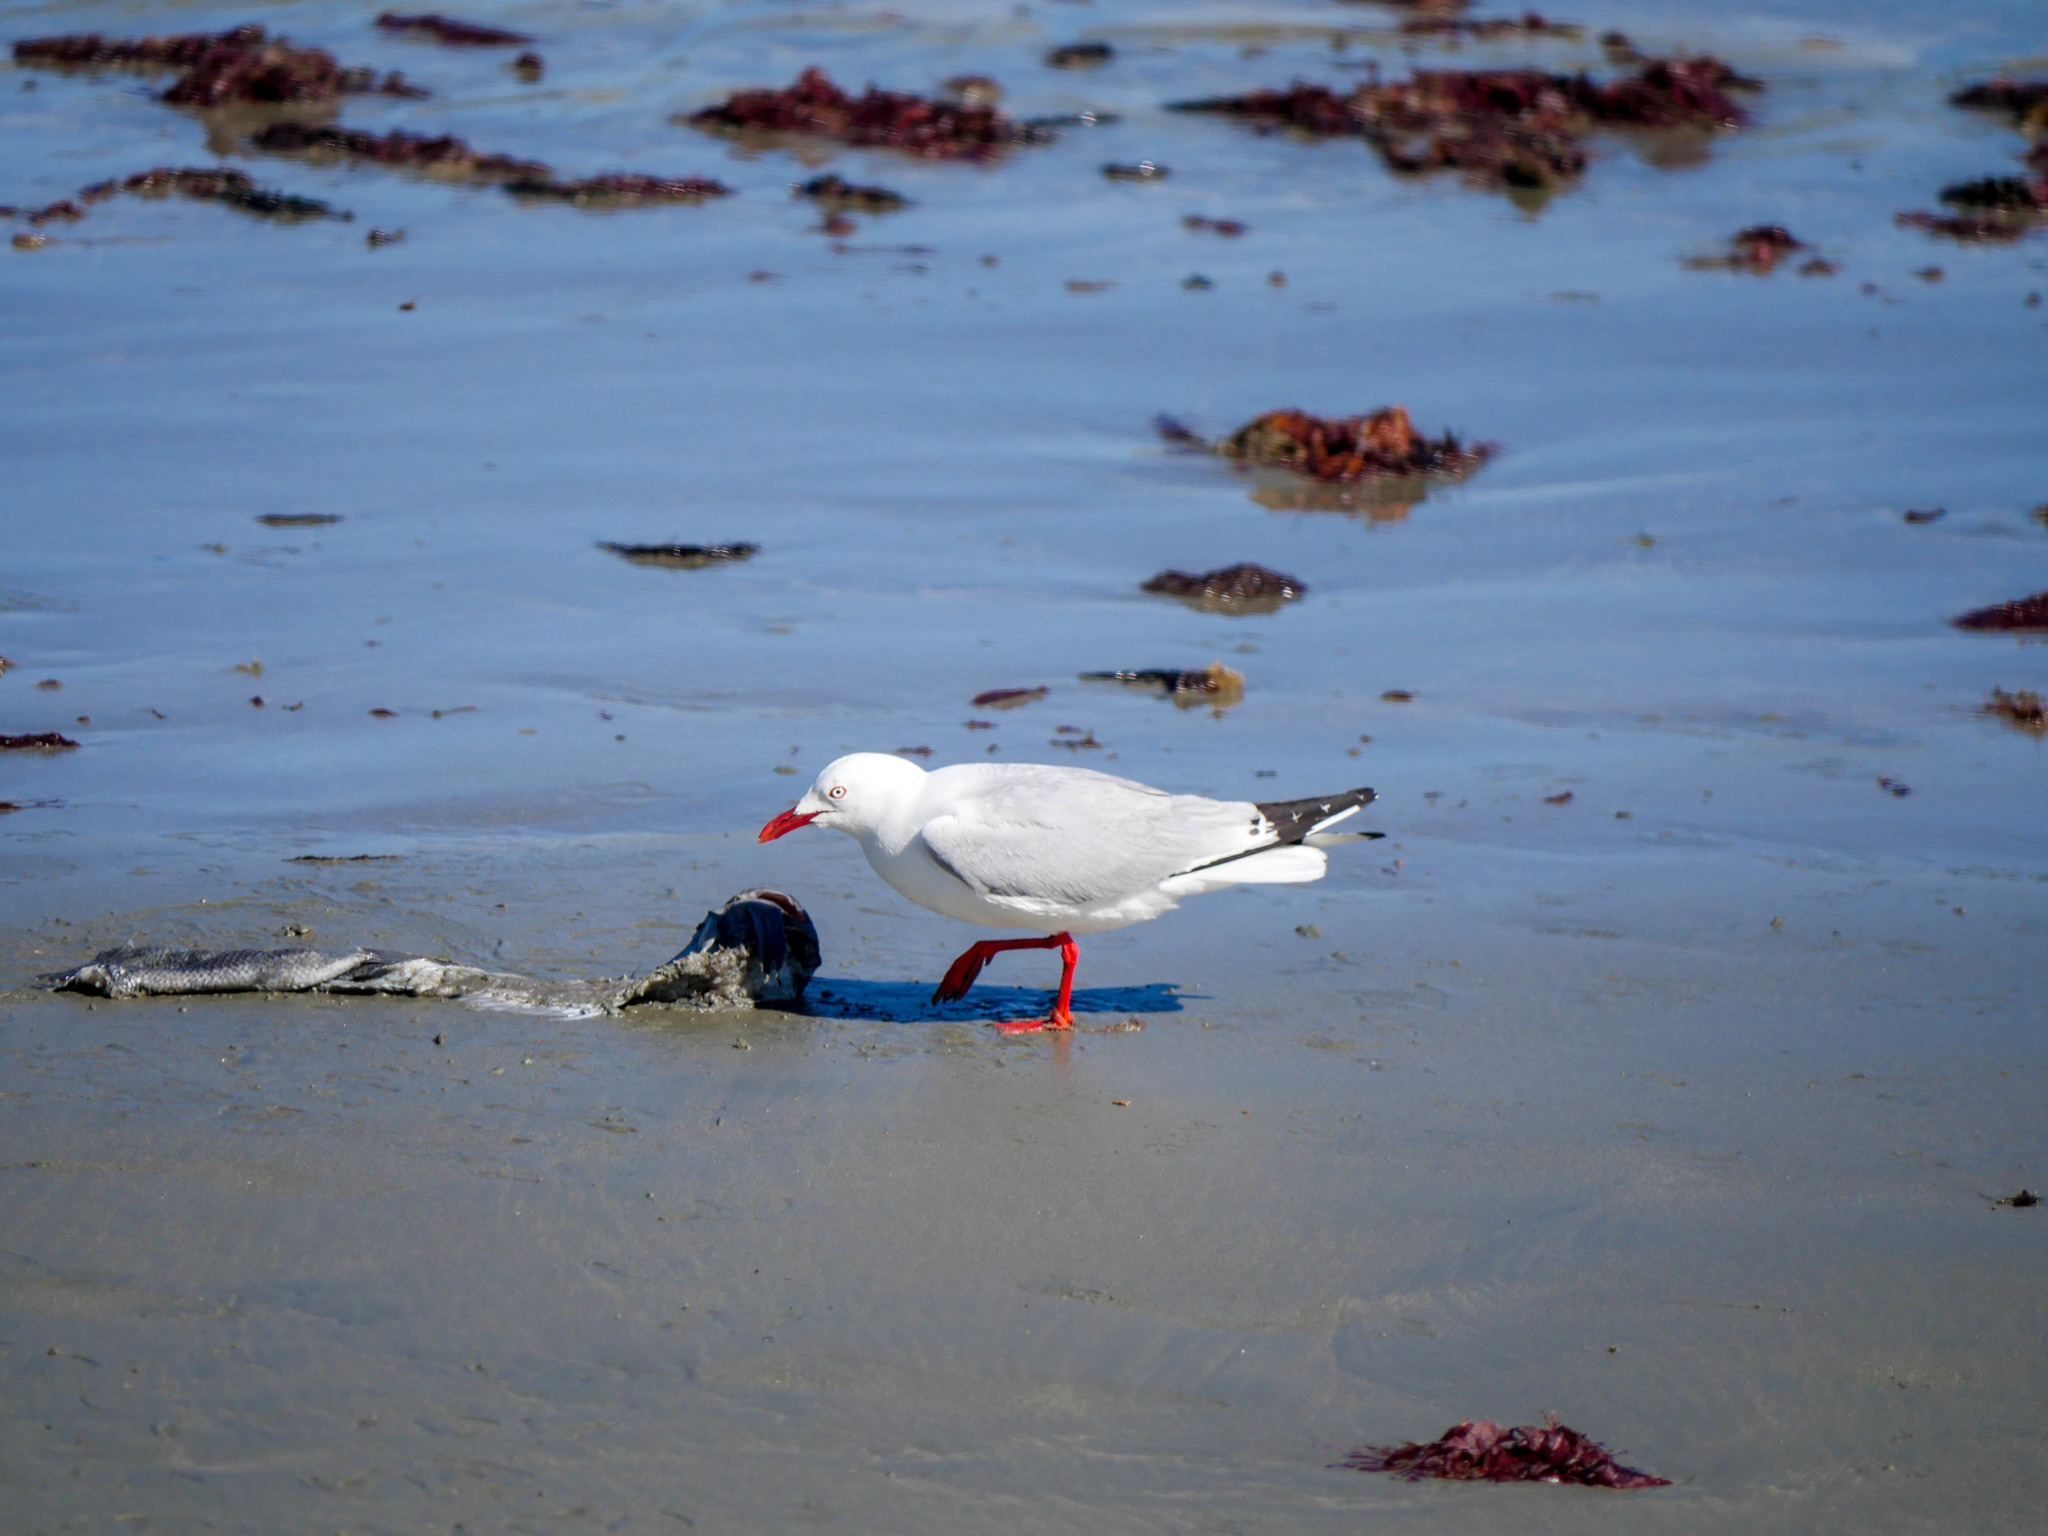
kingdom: Animalia
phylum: Chordata
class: Aves
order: Charadriiformes
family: Laridae
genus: Chroicocephalus
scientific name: Chroicocephalus novaehollandiae
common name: Silver gull
